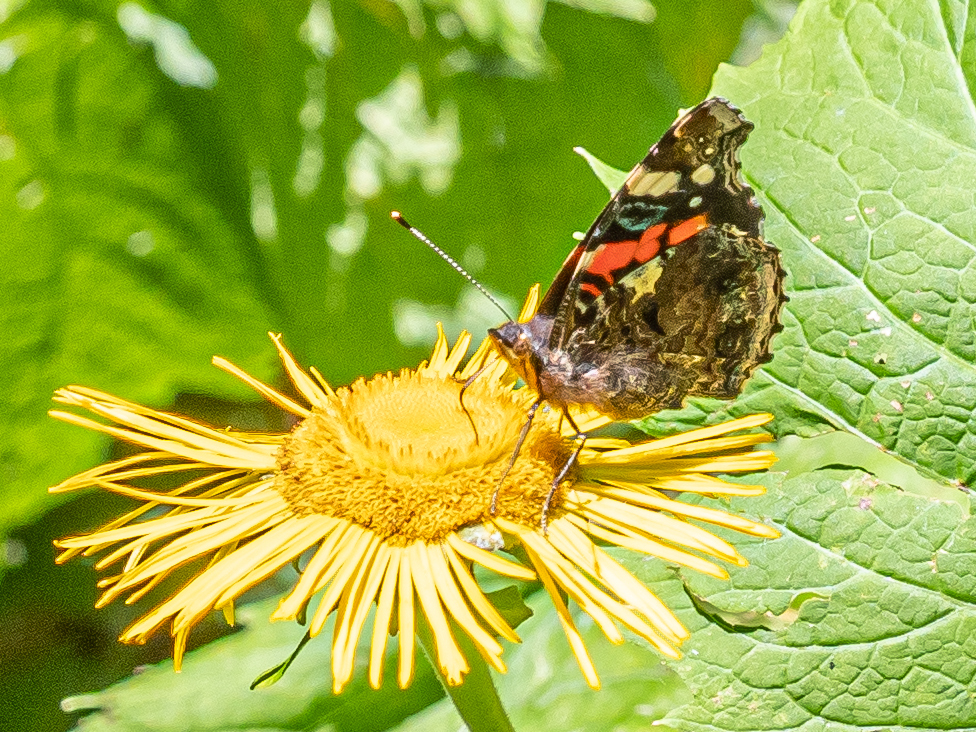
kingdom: Animalia
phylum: Arthropoda
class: Insecta
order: Lepidoptera
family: Nymphalidae
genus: Vanessa
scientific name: Vanessa atalanta
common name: Red admiral
